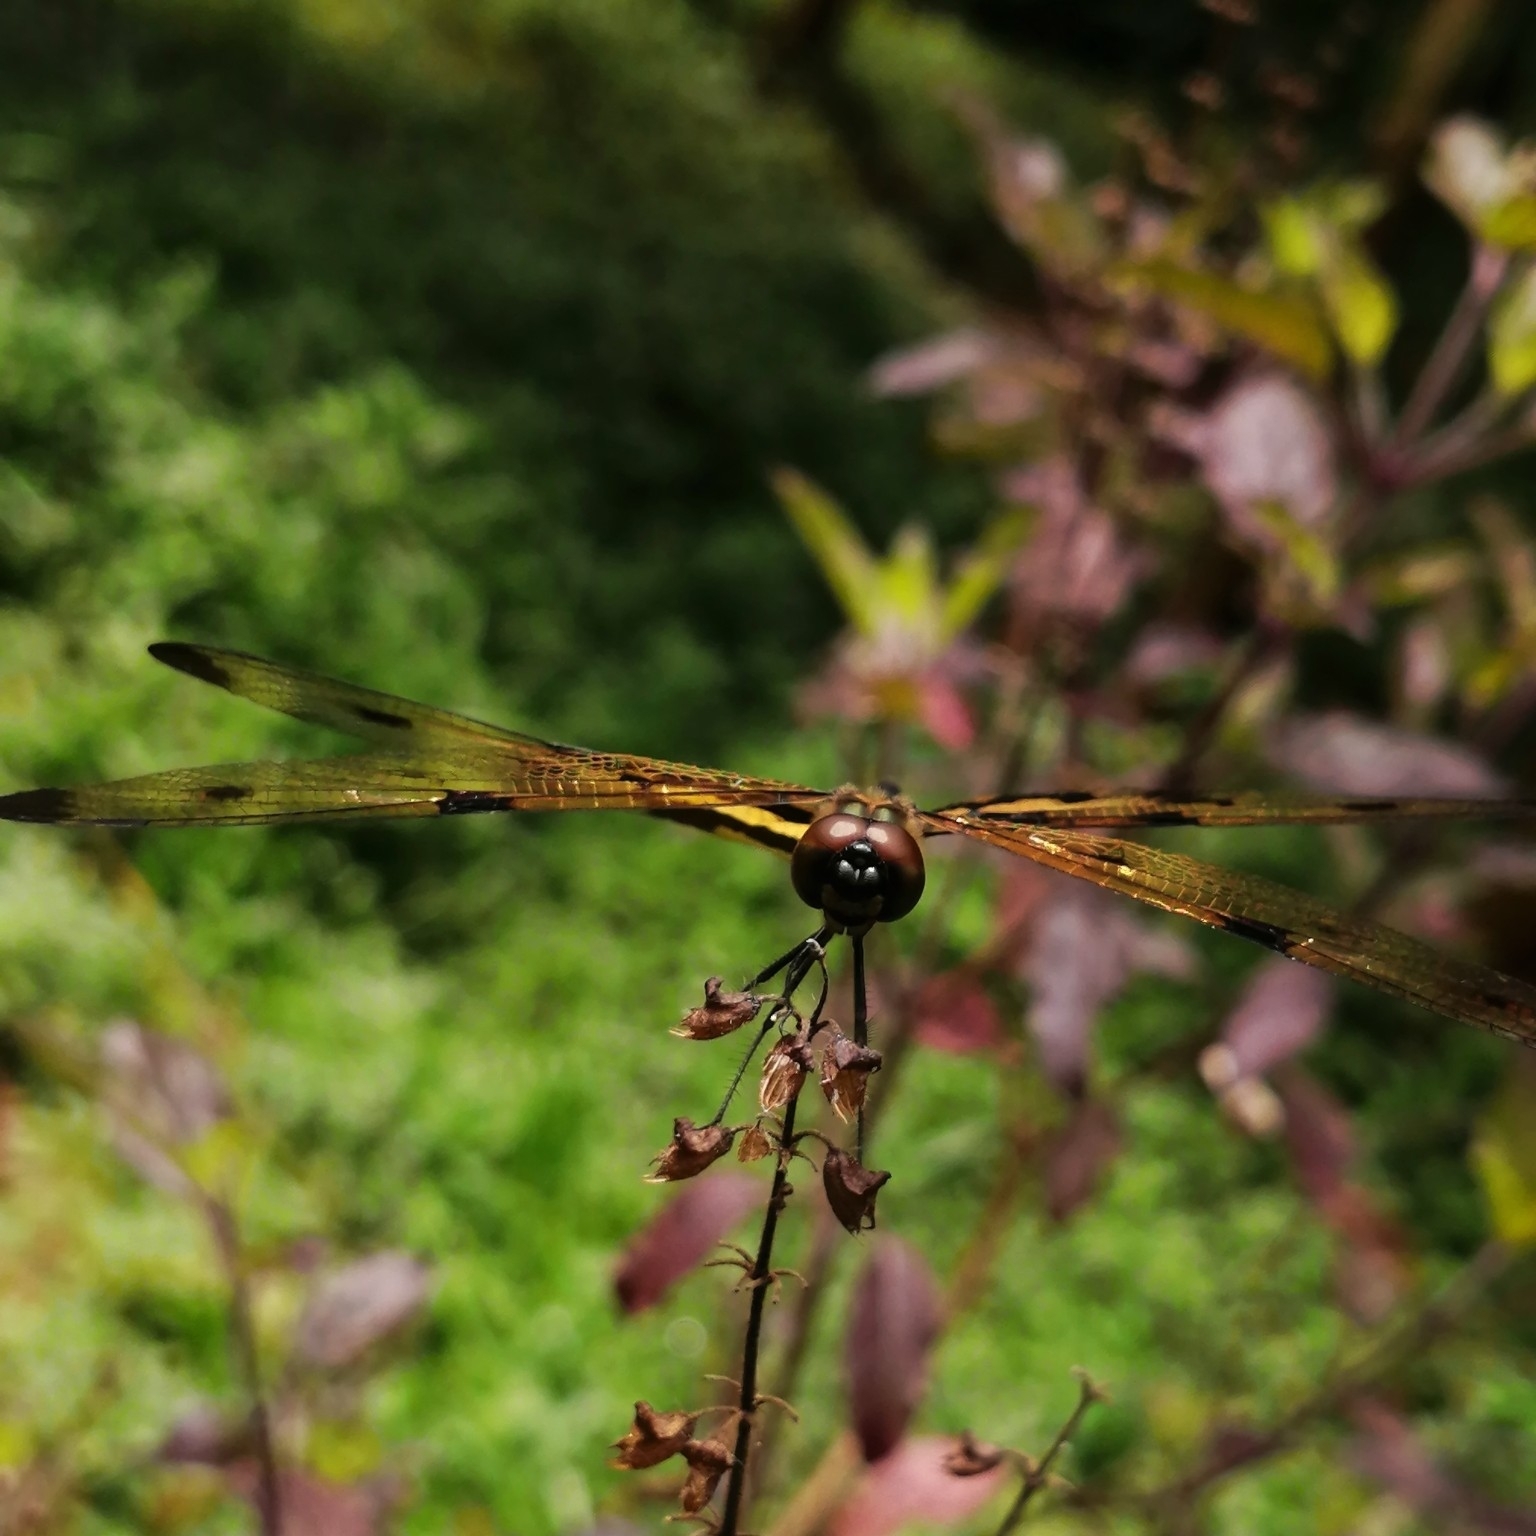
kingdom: Animalia
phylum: Arthropoda
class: Insecta
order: Odonata
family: Libellulidae
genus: Rhyothemis
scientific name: Rhyothemis variegata
